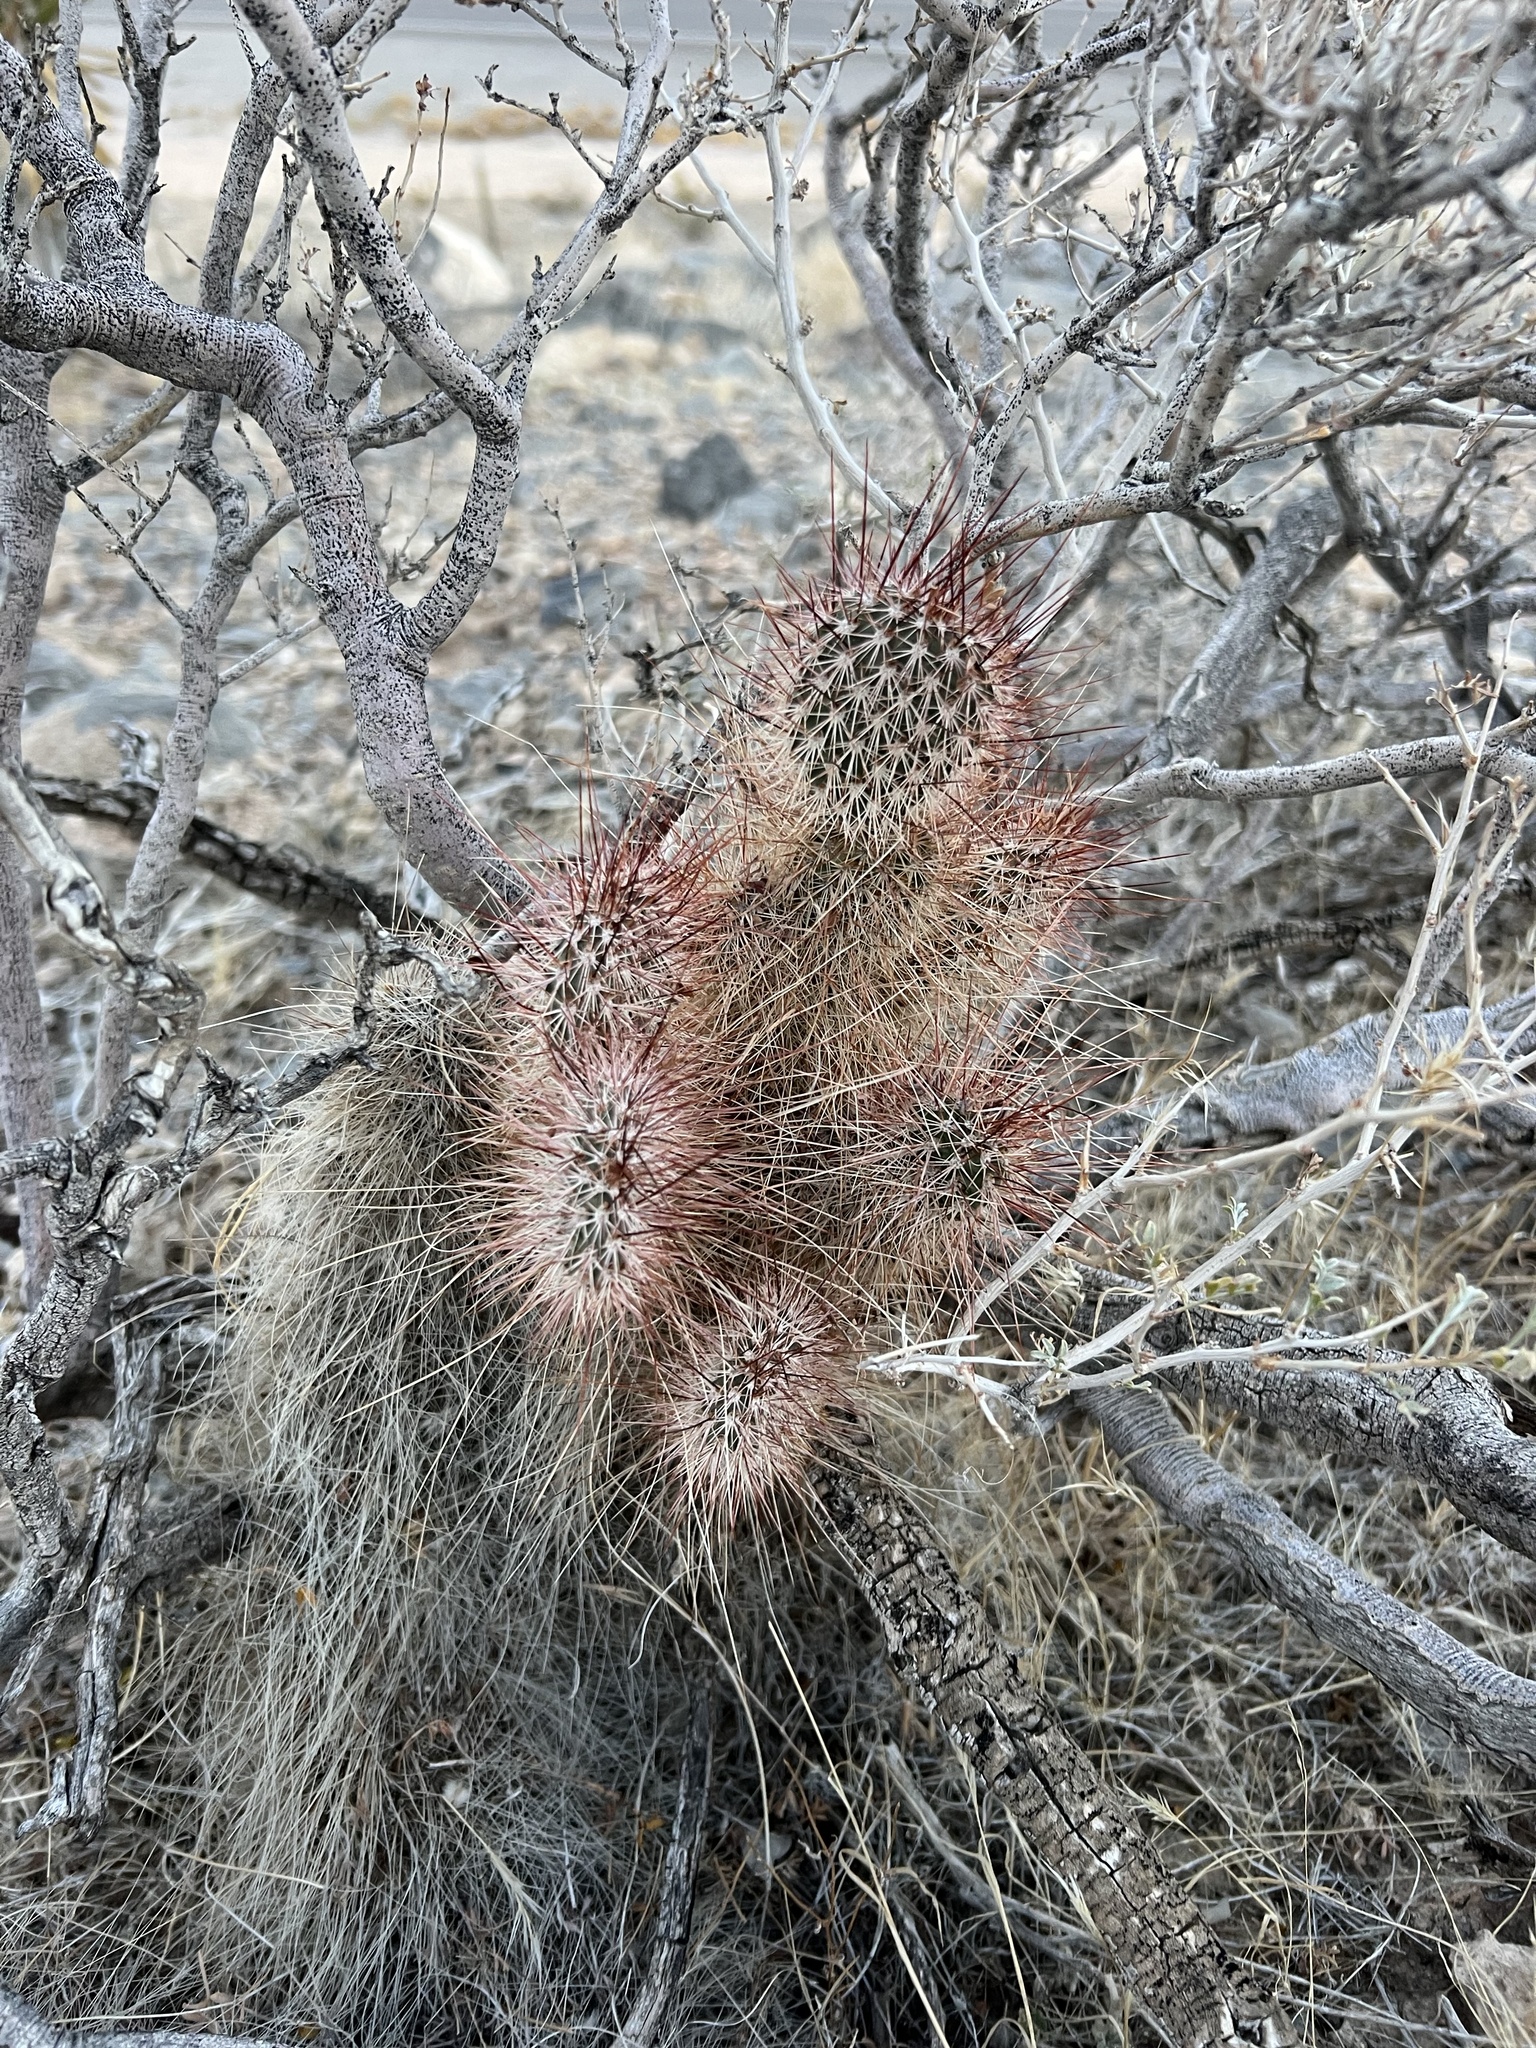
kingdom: Plantae
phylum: Tracheophyta
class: Magnoliopsida
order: Caryophyllales
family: Cactaceae
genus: Opuntia
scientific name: Opuntia polyacantha
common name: Plains prickly-pear
